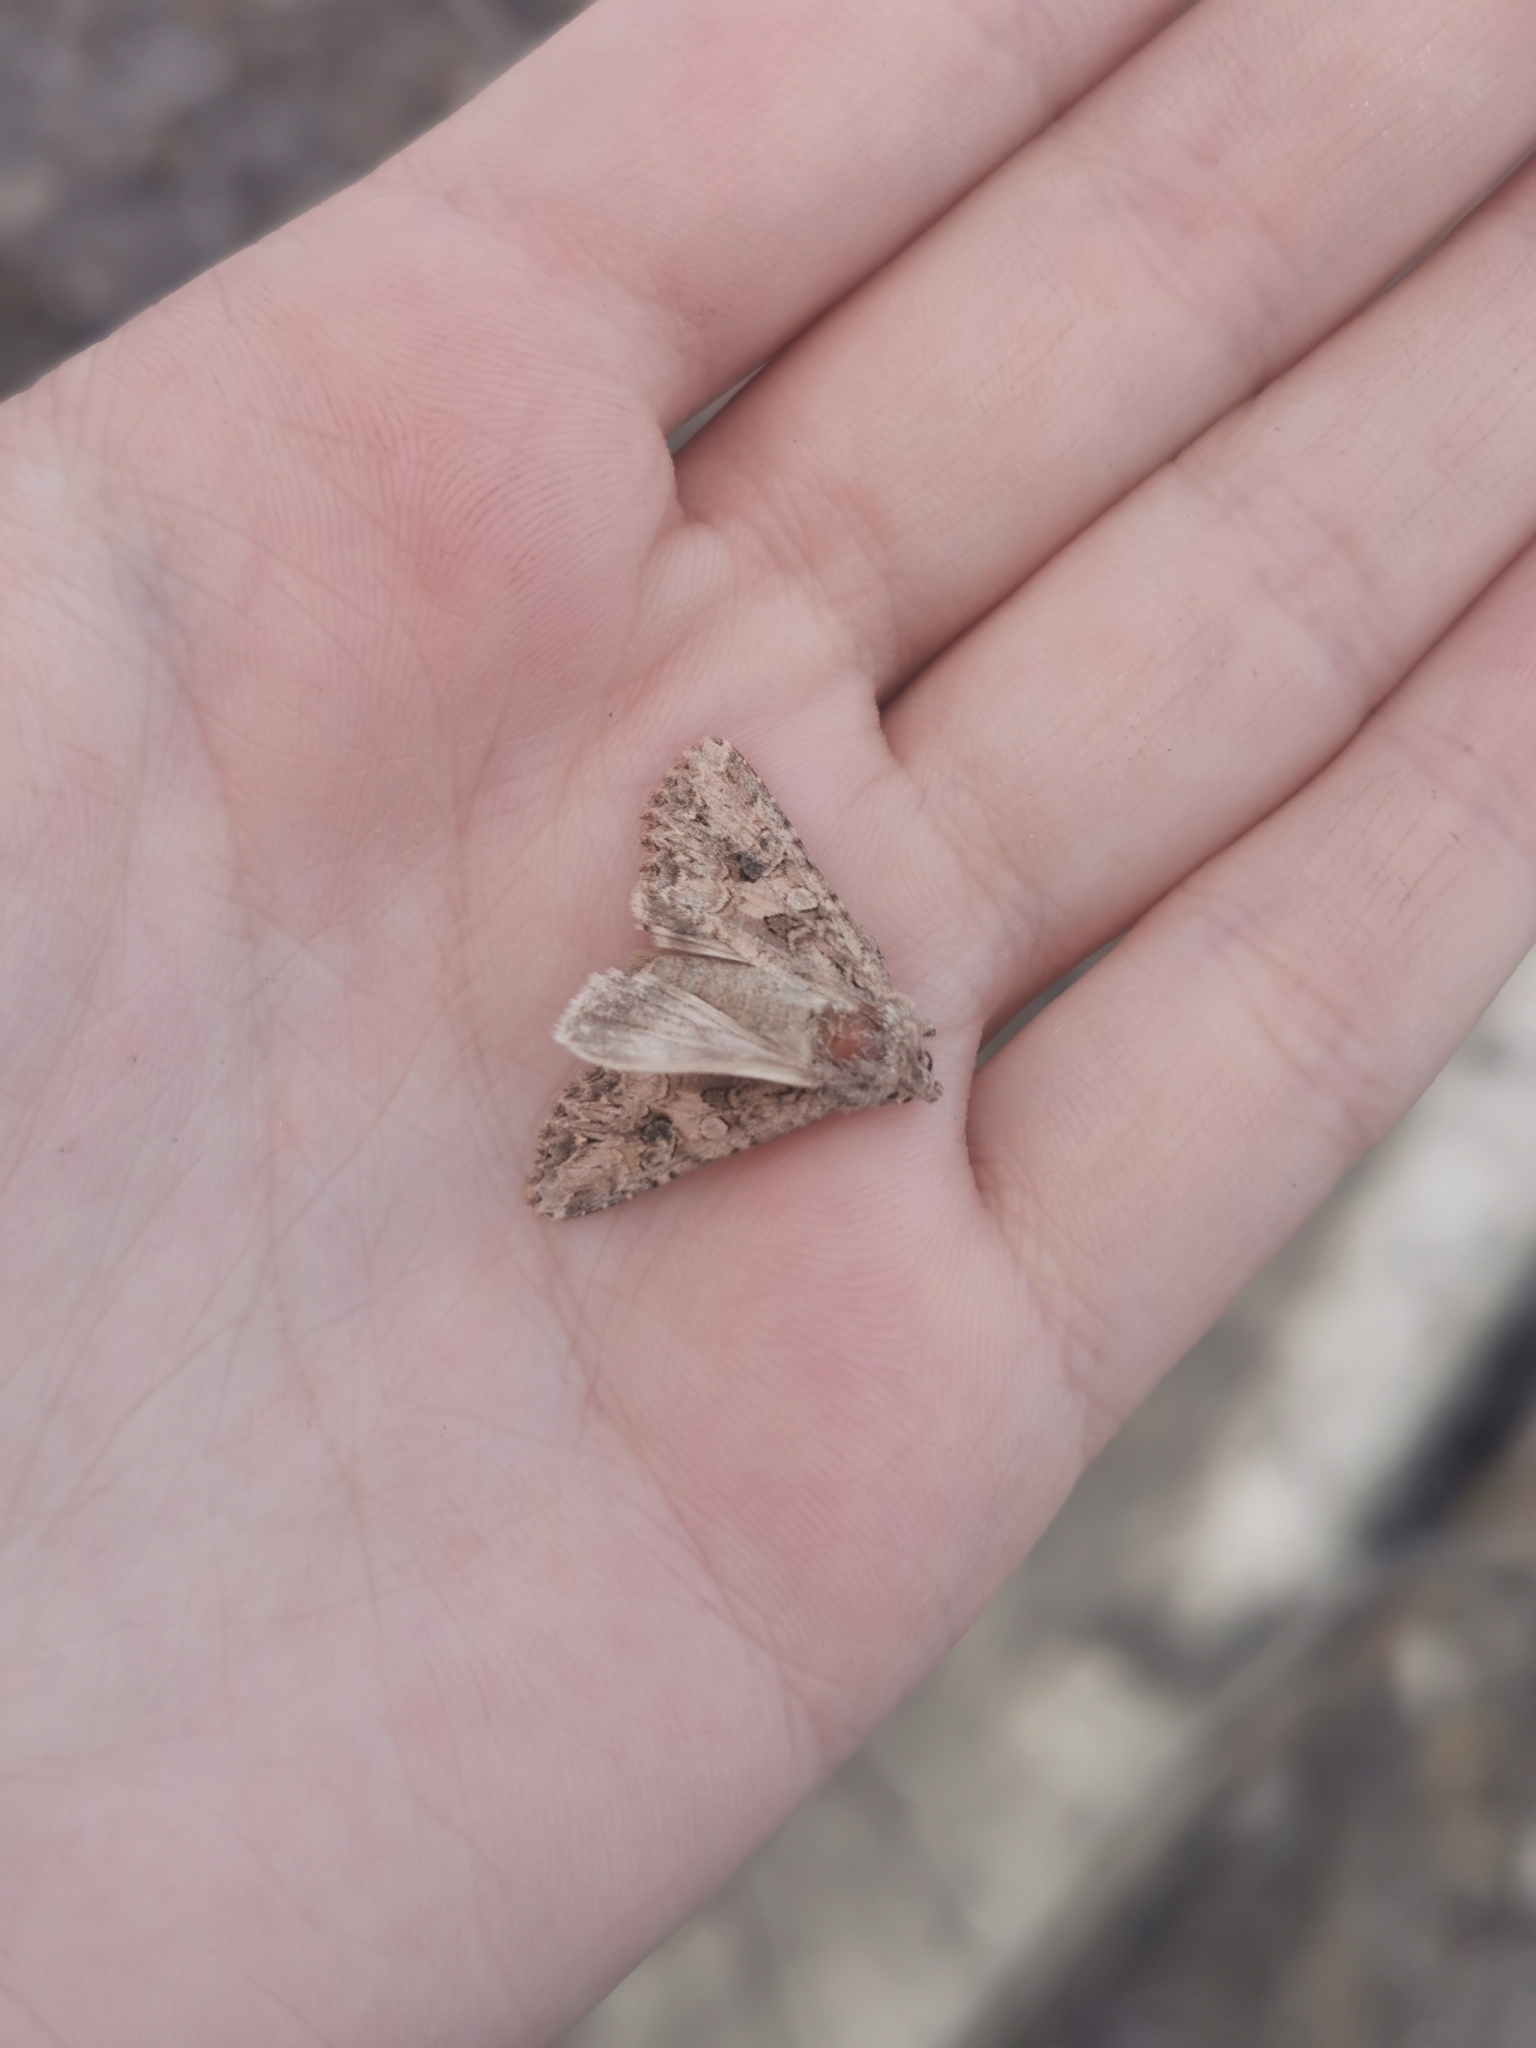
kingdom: Animalia
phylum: Arthropoda
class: Insecta
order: Lepidoptera
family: Noctuidae
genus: Anarta
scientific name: Anarta trifolii
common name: Clover cutworm moth
